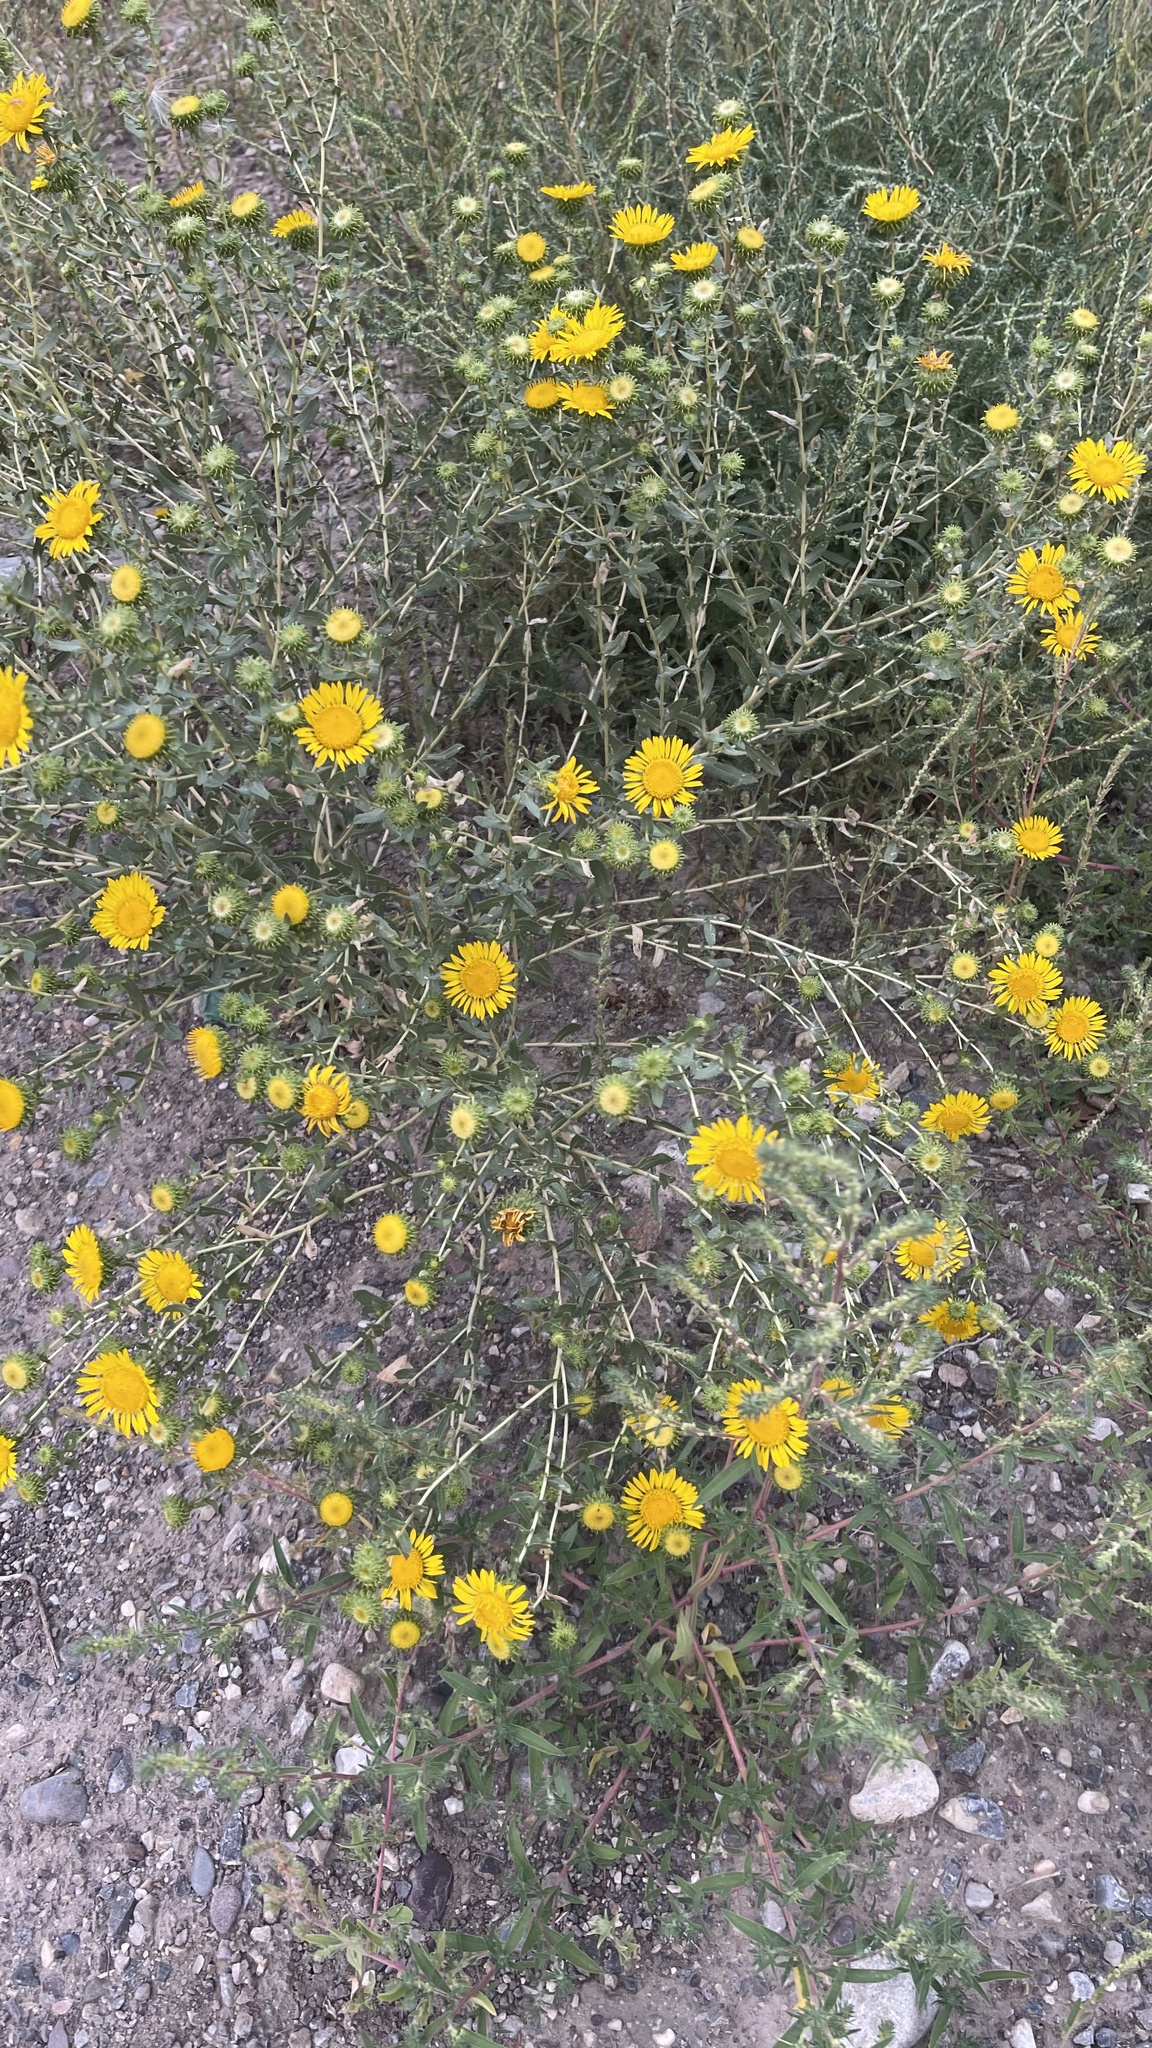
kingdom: Plantae
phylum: Tracheophyta
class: Magnoliopsida
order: Asterales
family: Asteraceae
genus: Grindelia
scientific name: Grindelia squarrosa
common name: Curly-cup gumweed
